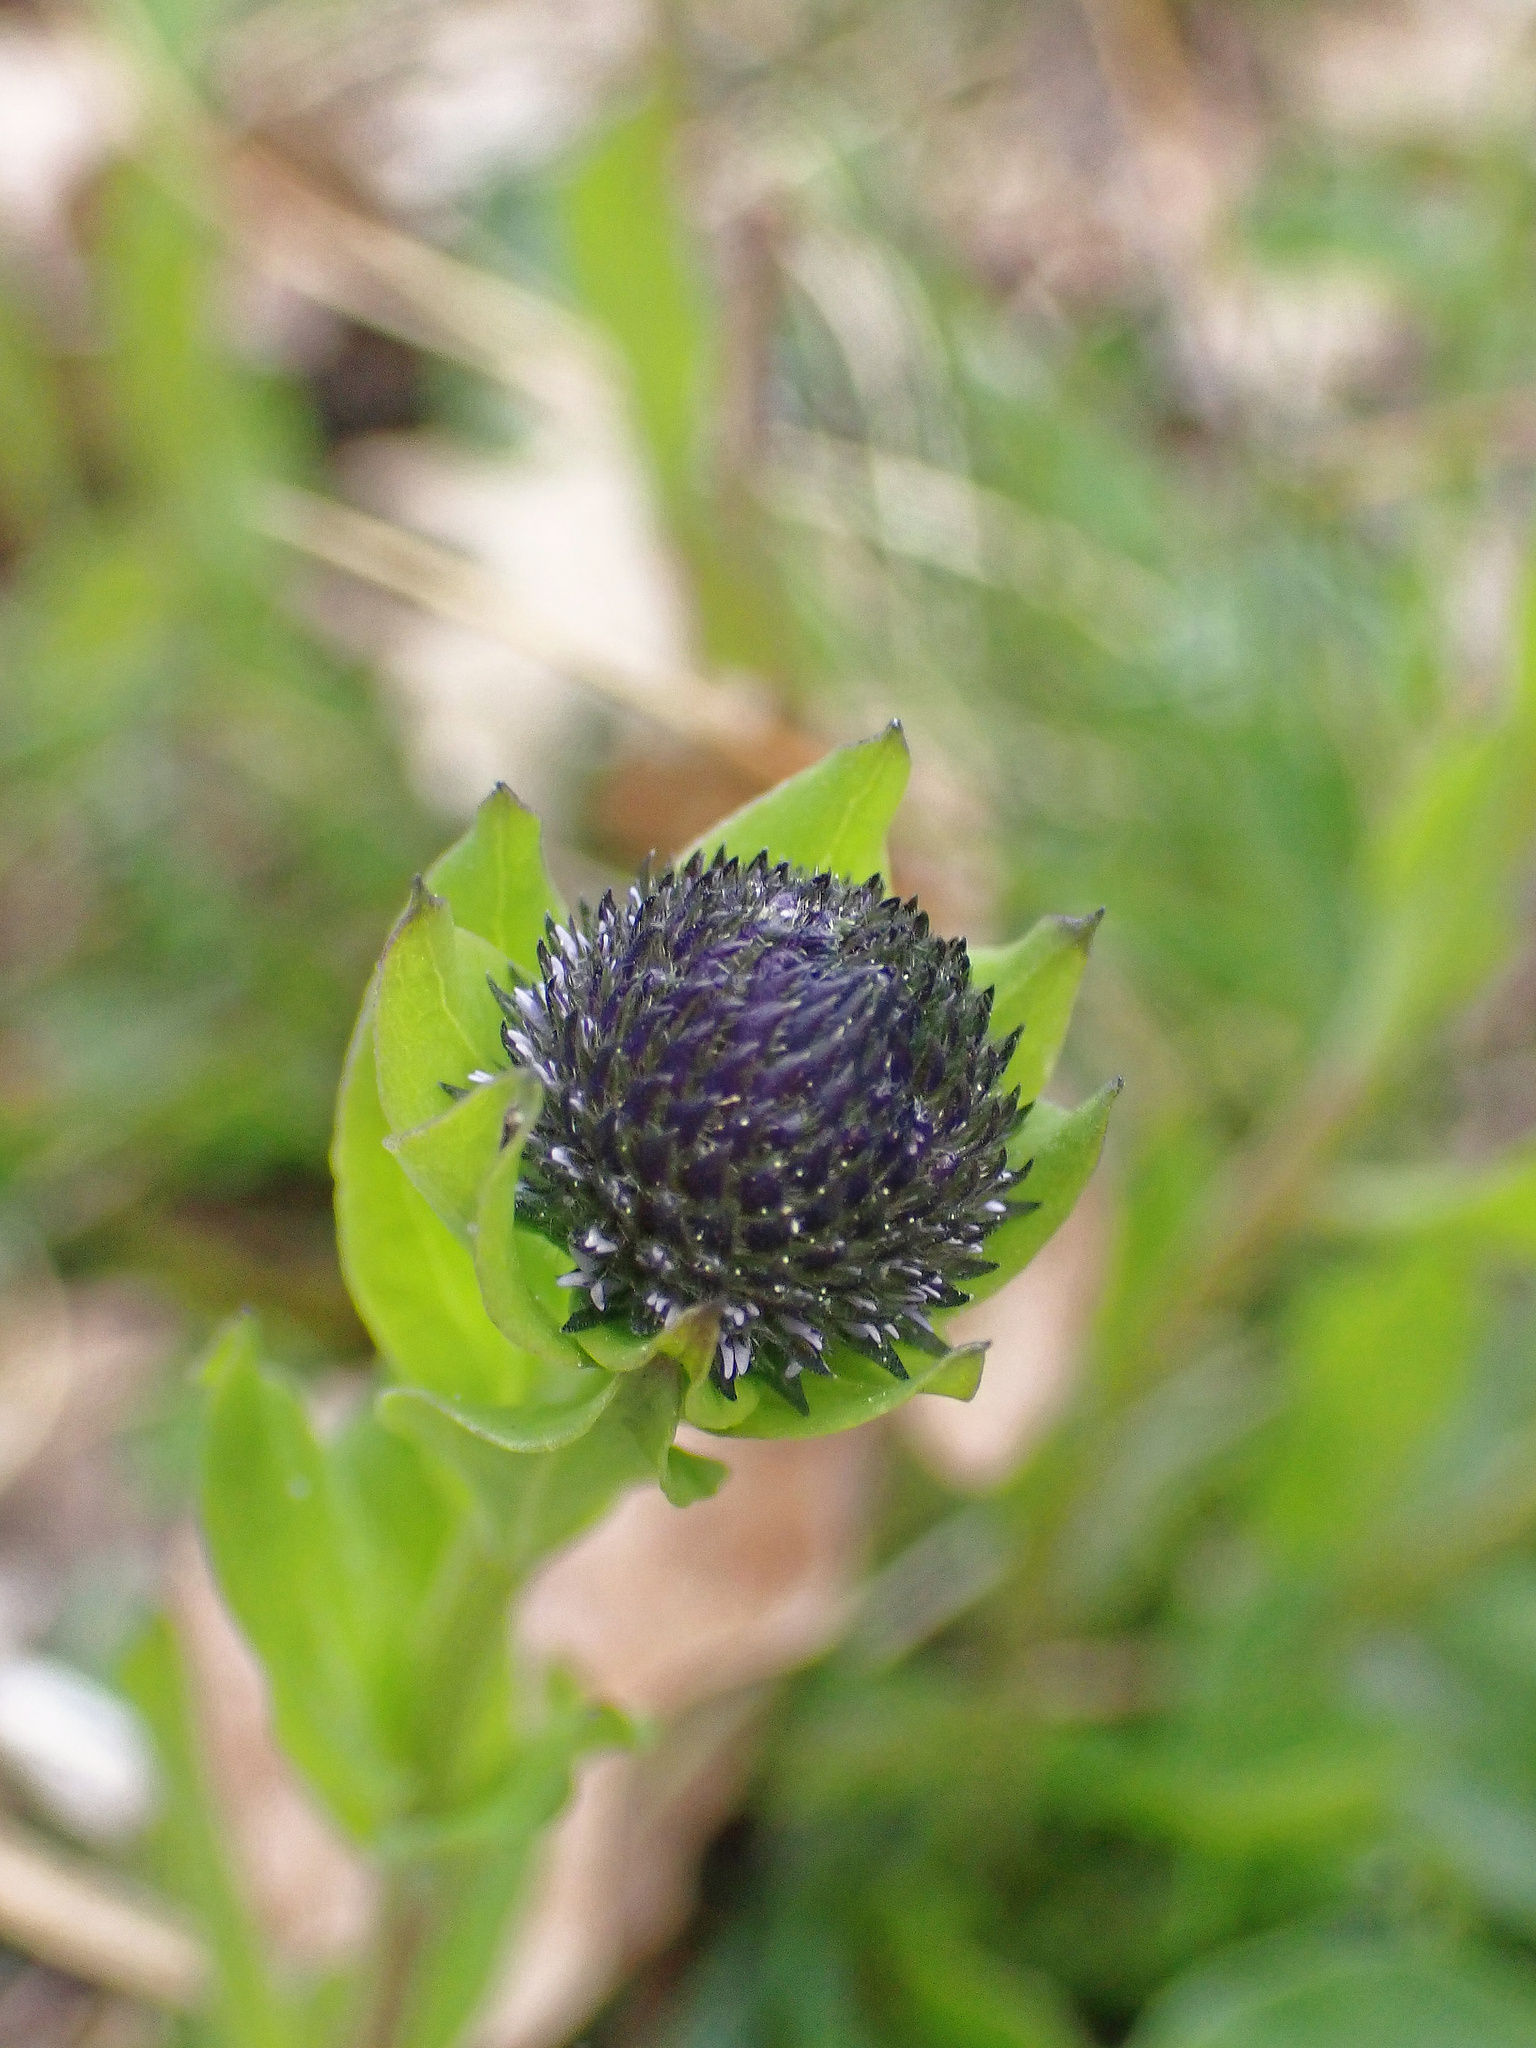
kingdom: Plantae
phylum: Tracheophyta
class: Magnoliopsida
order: Lamiales
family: Plantaginaceae
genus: Globularia
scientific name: Globularia bisnagarica
